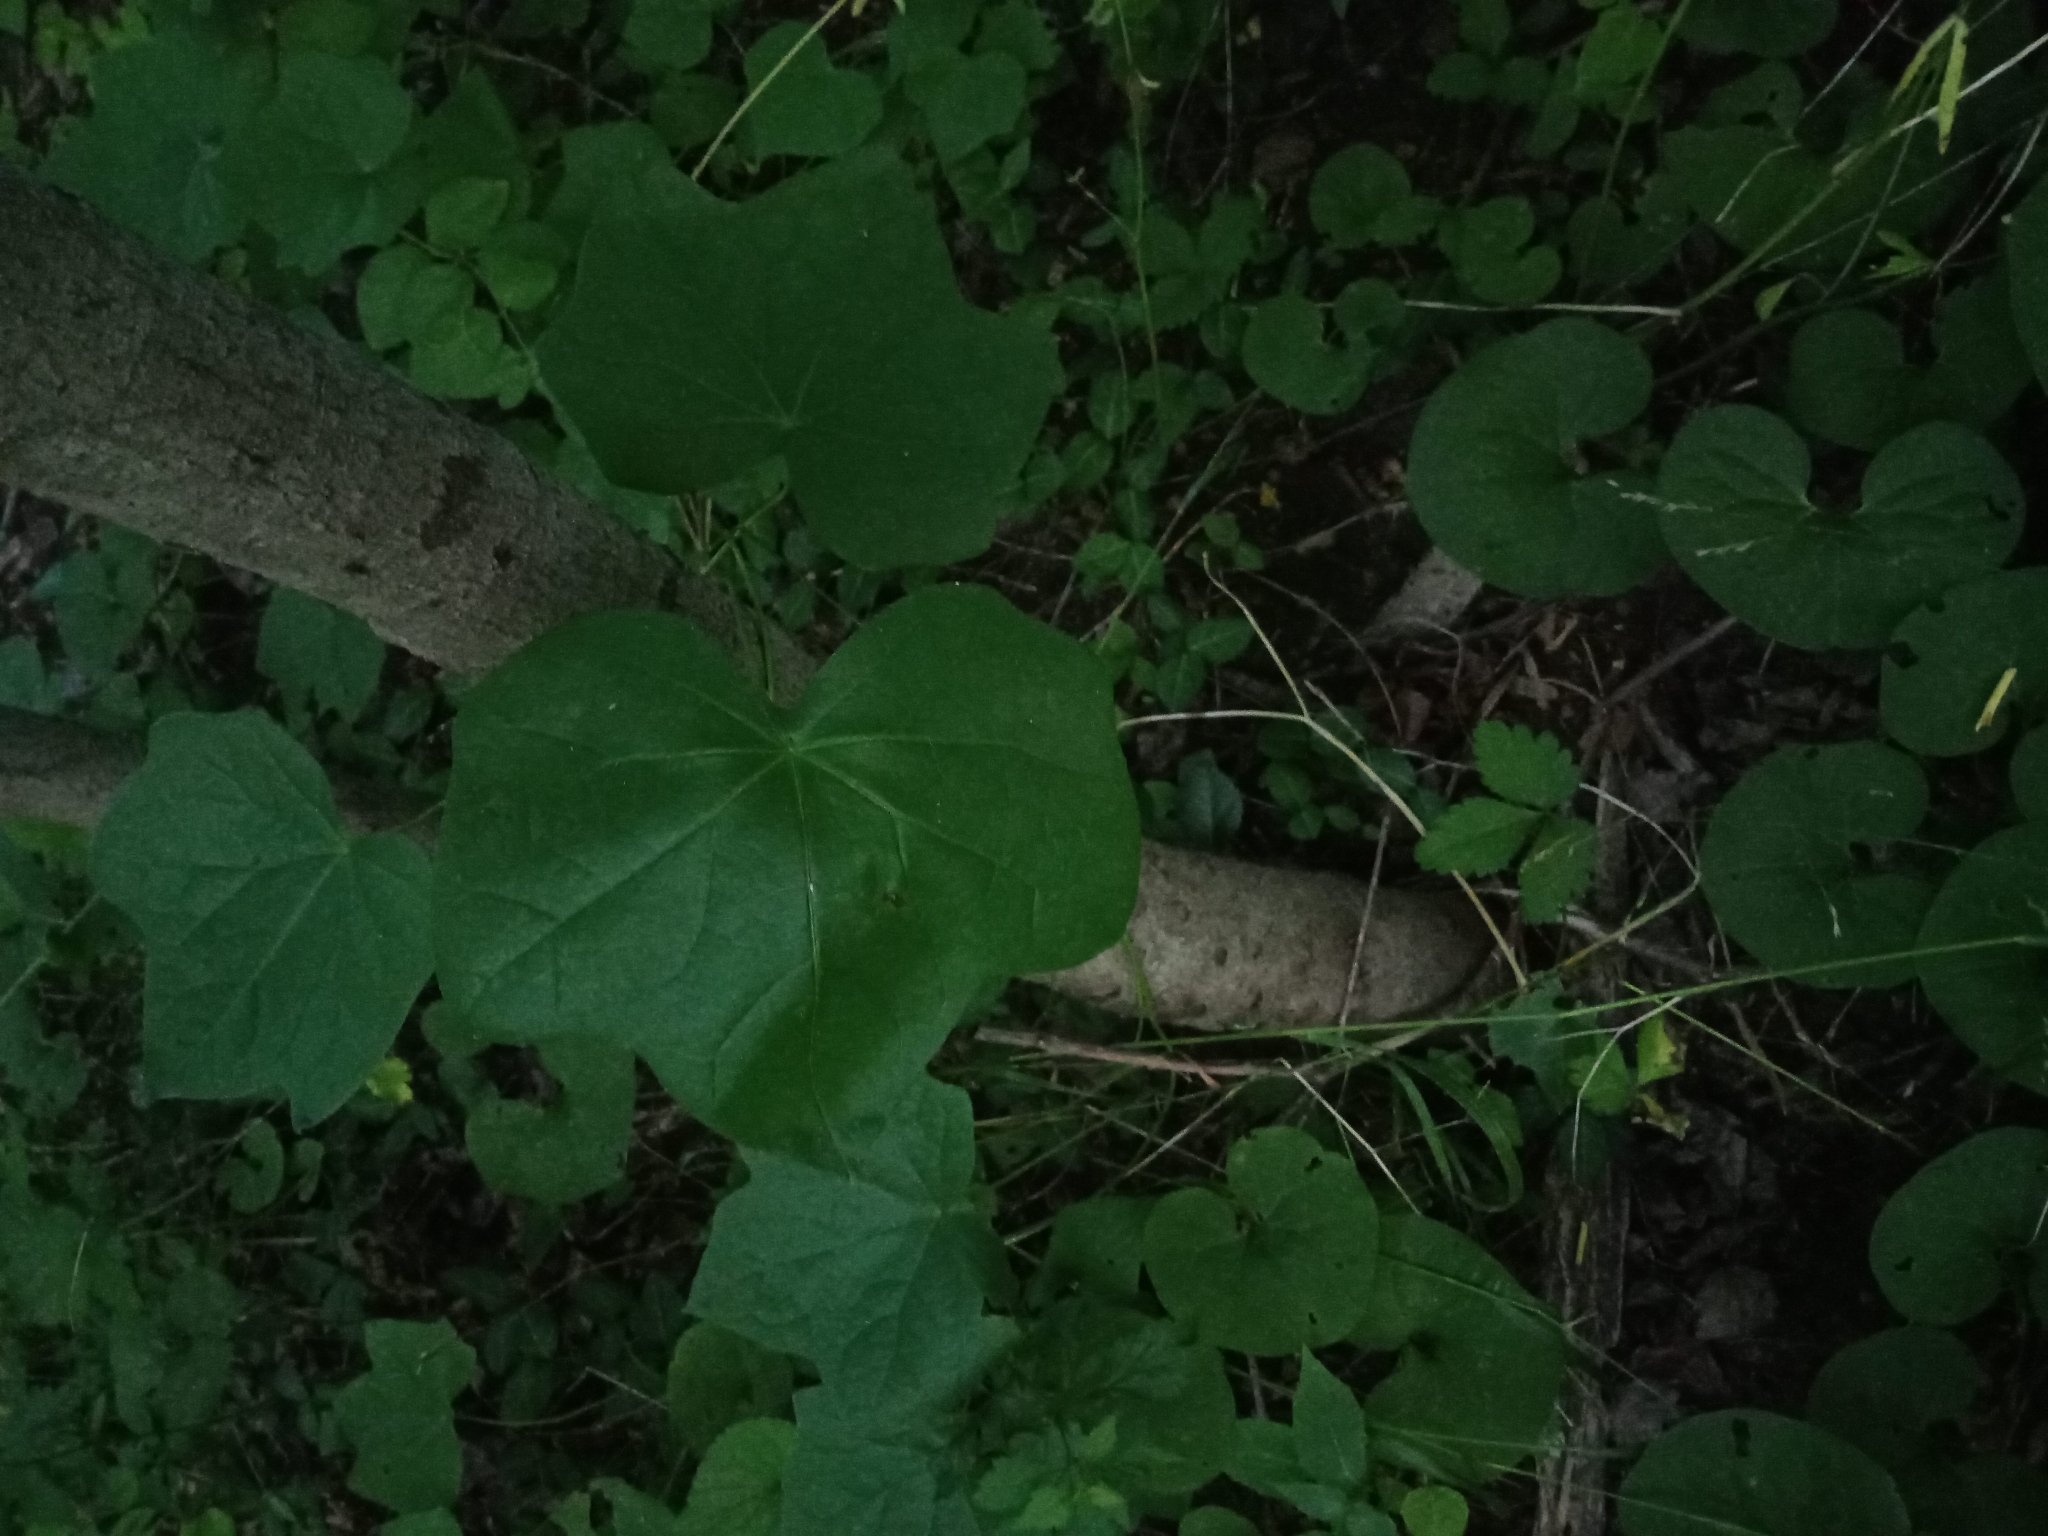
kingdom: Plantae
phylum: Tracheophyta
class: Magnoliopsida
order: Ranunculales
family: Menispermaceae
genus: Menispermum
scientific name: Menispermum canadense
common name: Moonseed
